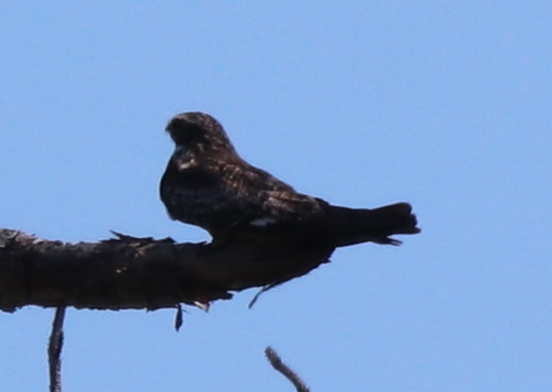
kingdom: Animalia
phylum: Chordata
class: Aves
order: Caprimulgiformes
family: Caprimulgidae
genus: Chordeiles
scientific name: Chordeiles minor
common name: Common nighthawk
